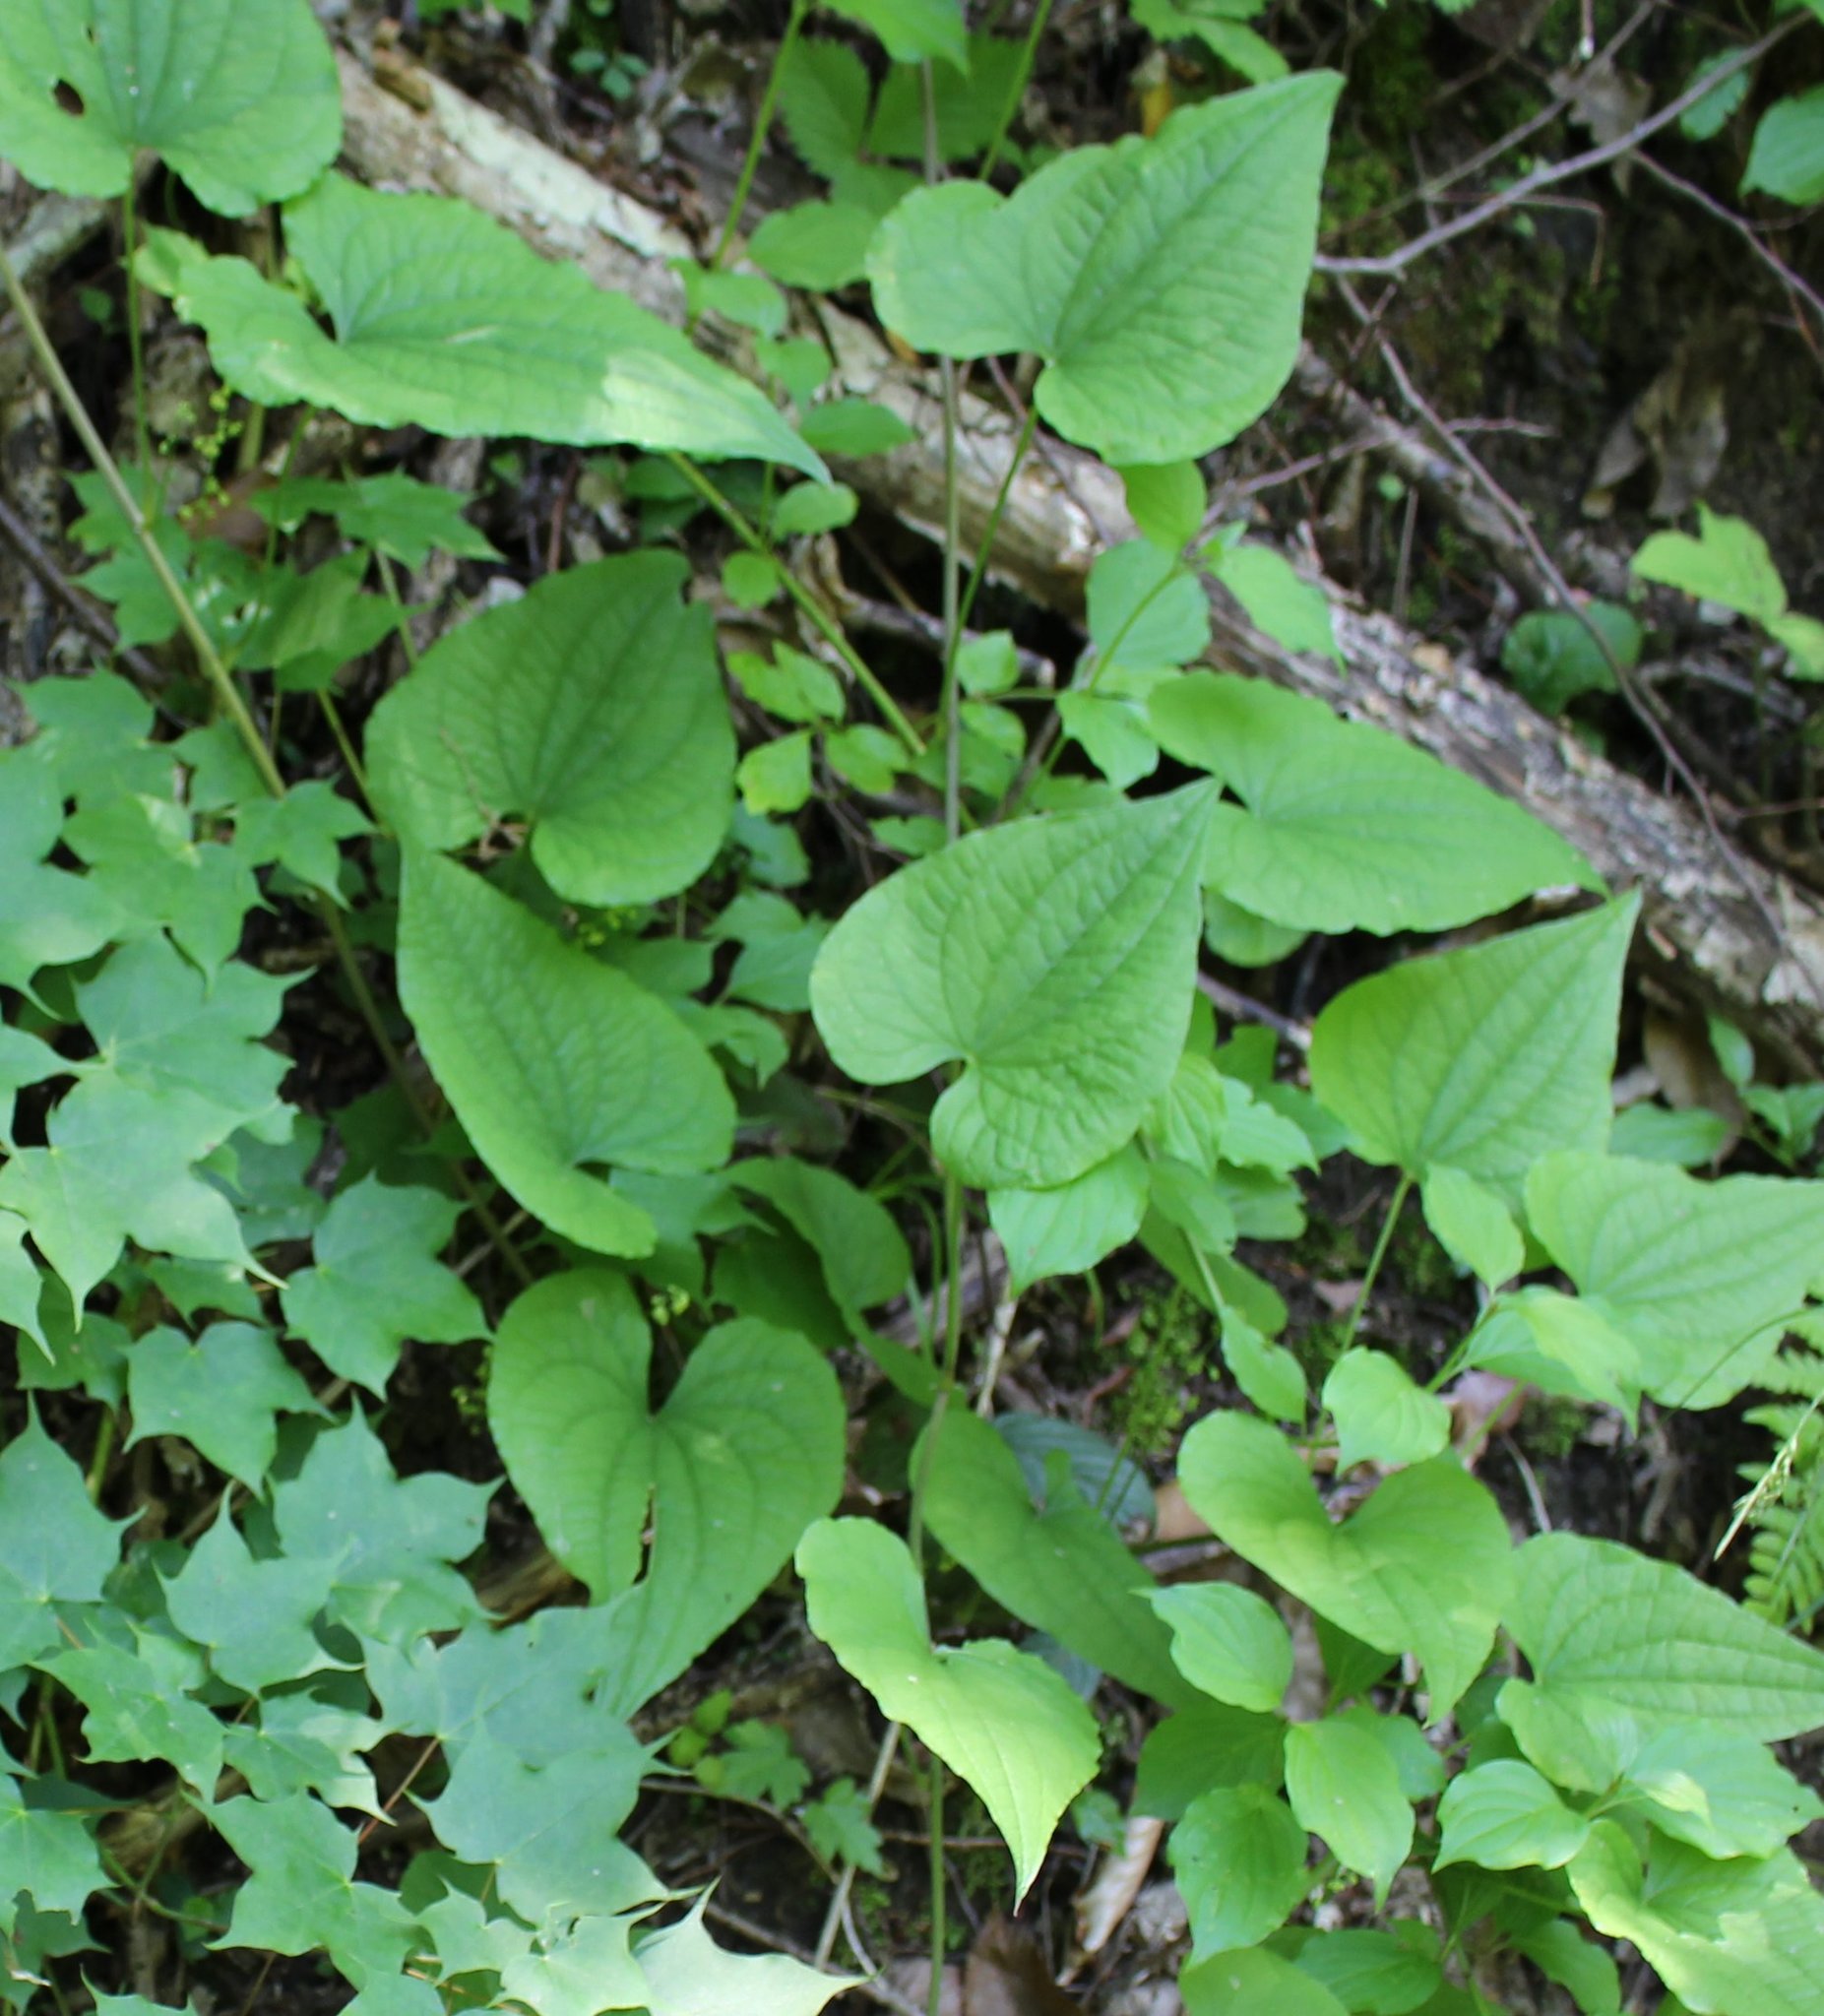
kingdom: Plantae
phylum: Tracheophyta
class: Liliopsida
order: Dioscoreales
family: Dioscoreaceae
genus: Dioscorea
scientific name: Dioscorea communis
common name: Black-bindweed
